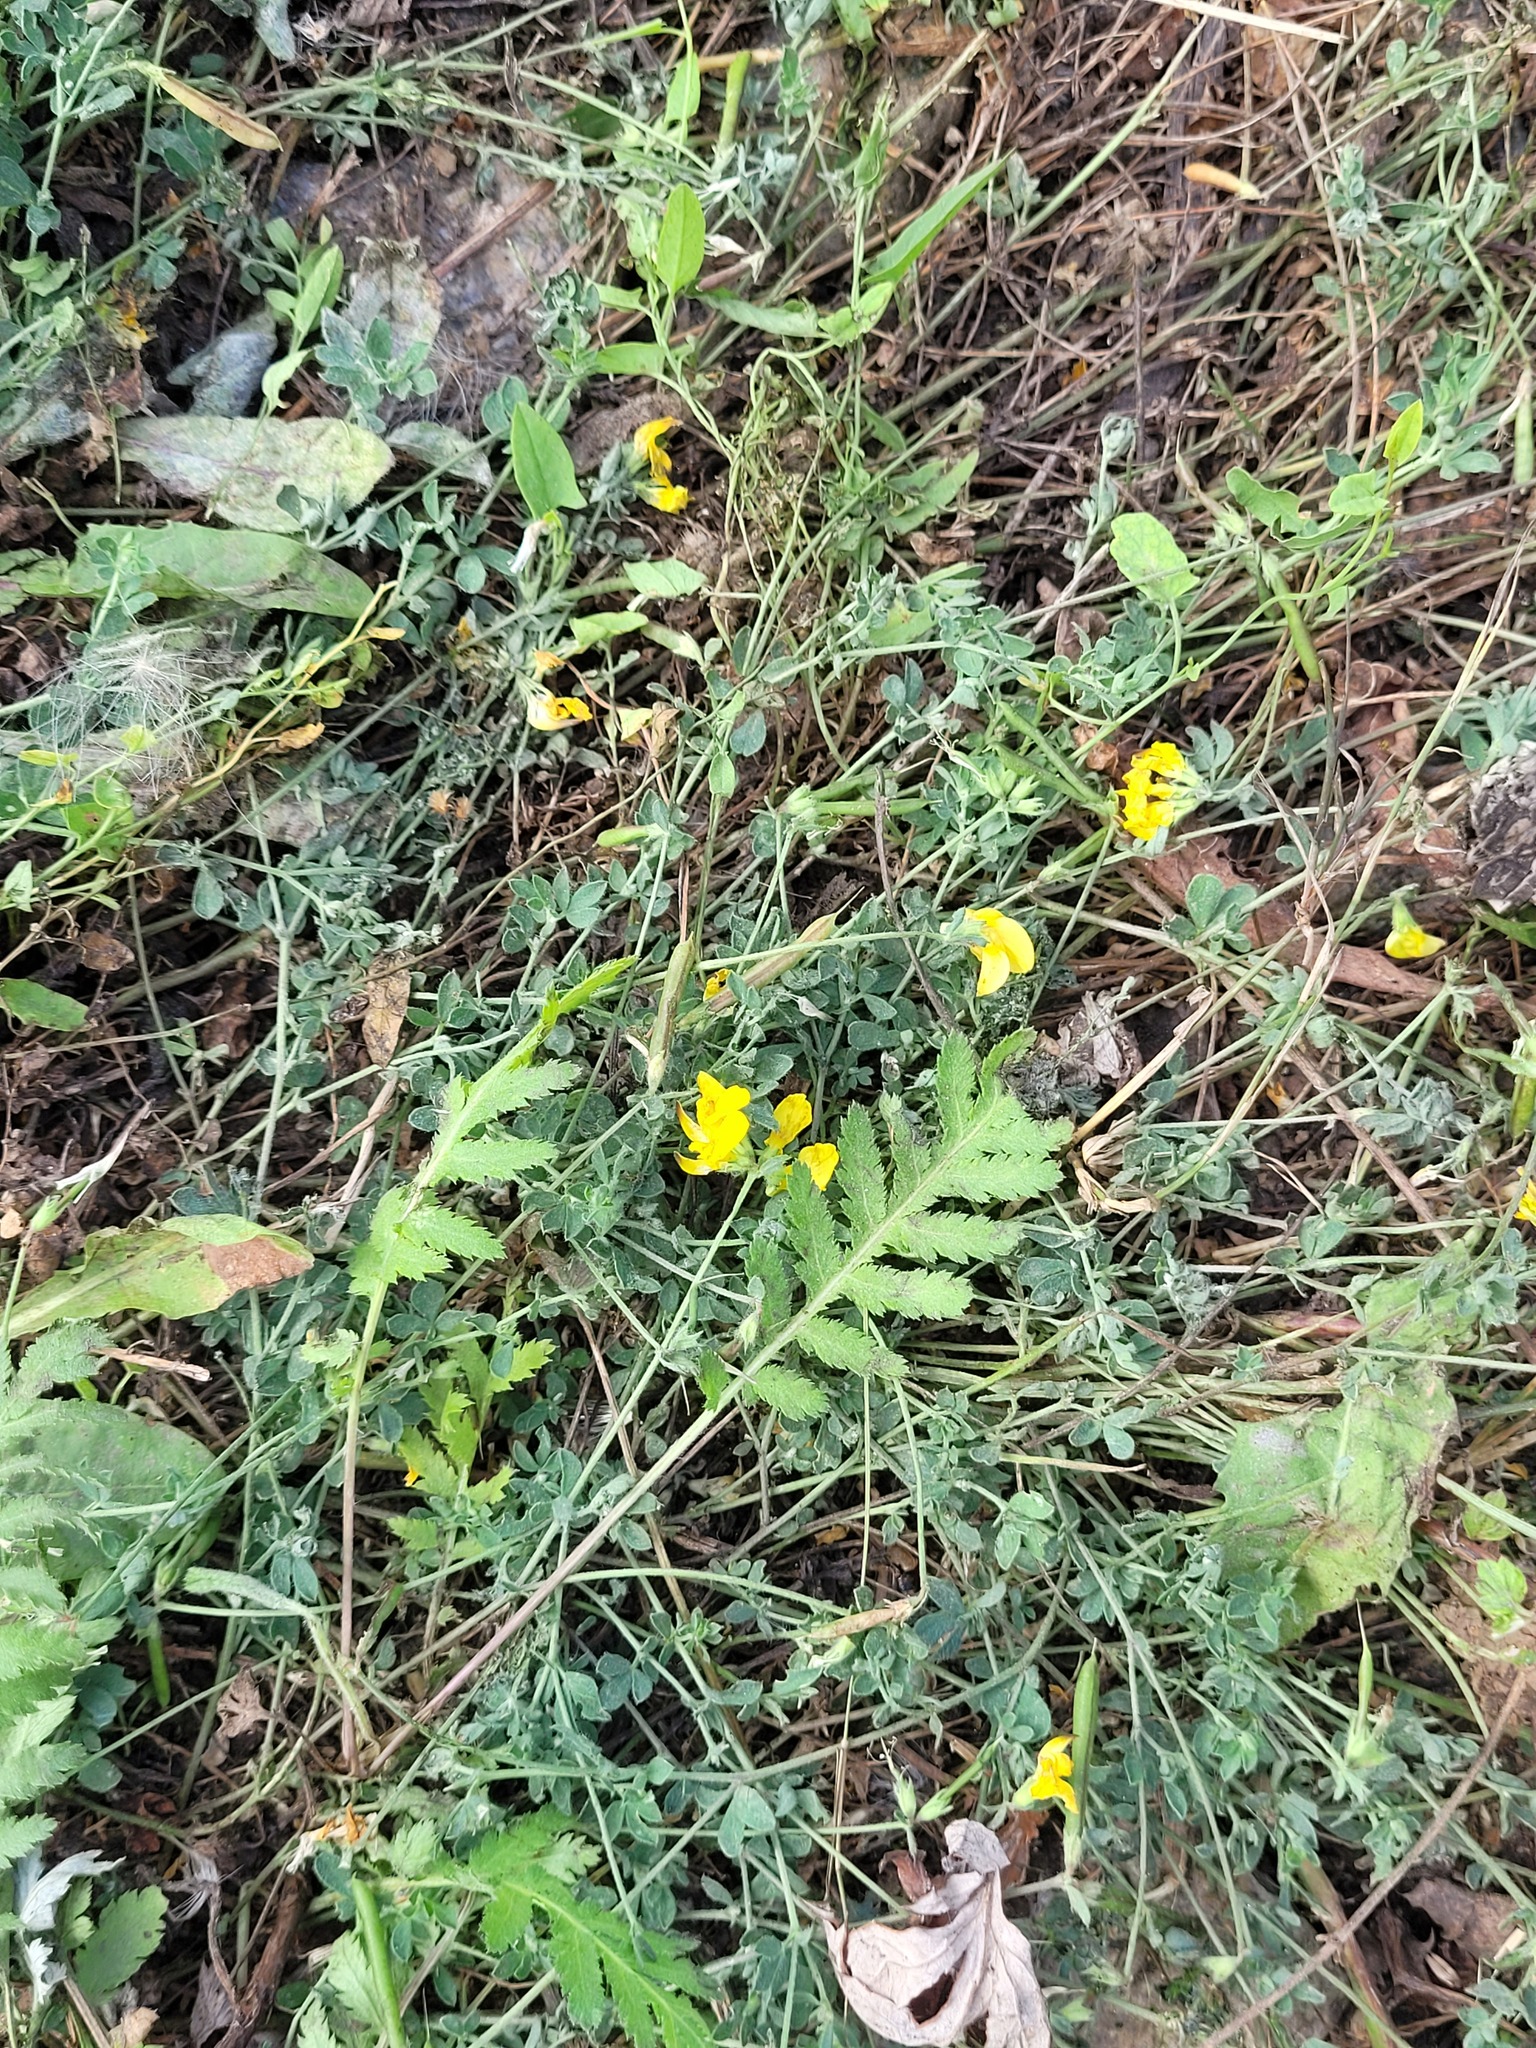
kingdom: Plantae
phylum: Tracheophyta
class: Magnoliopsida
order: Fabales
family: Fabaceae
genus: Lotus
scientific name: Lotus corniculatus
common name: Common bird's-foot-trefoil
